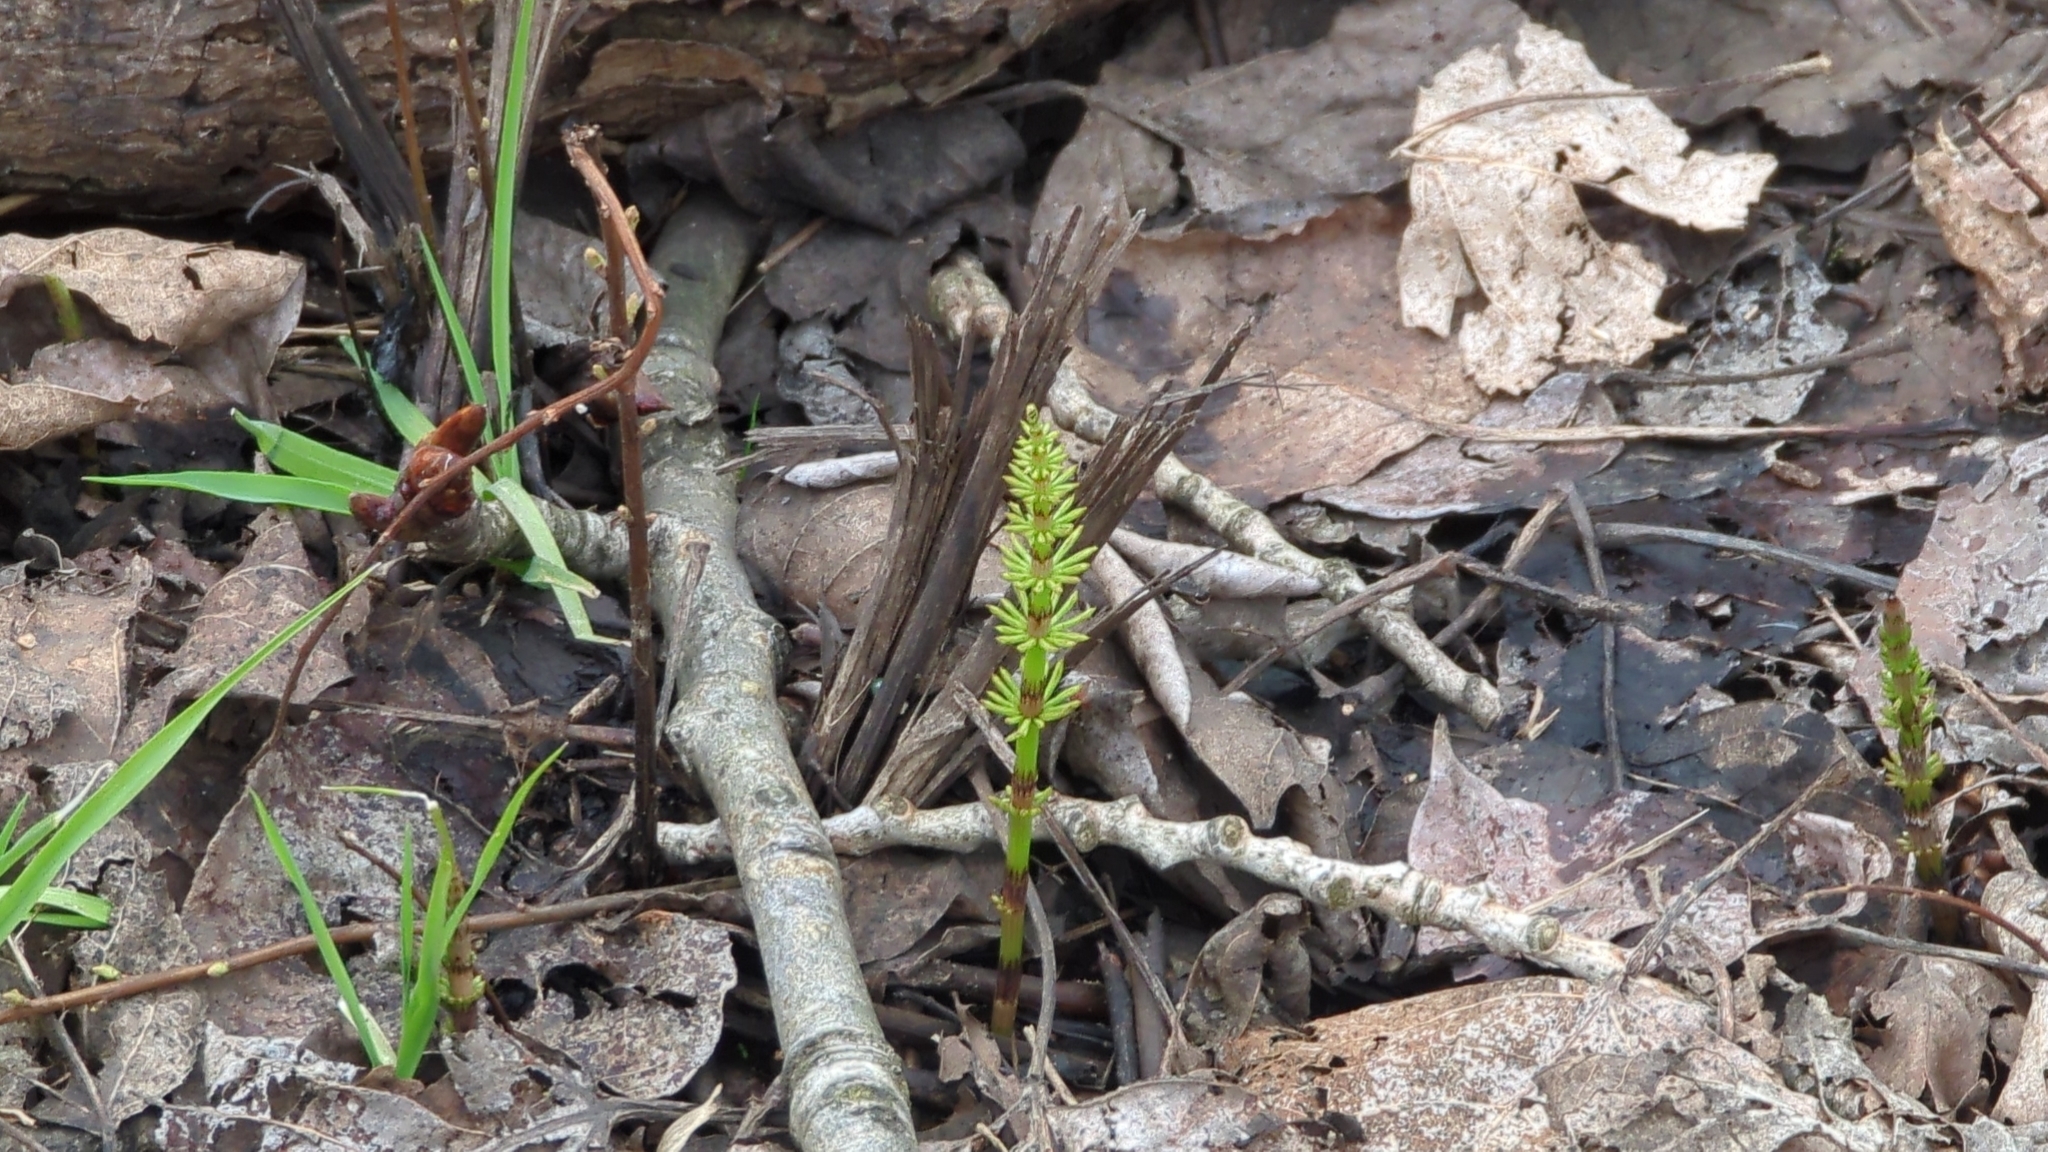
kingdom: Plantae
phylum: Tracheophyta
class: Polypodiopsida
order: Equisetales
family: Equisetaceae
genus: Equisetum
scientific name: Equisetum arvense
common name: Field horsetail
